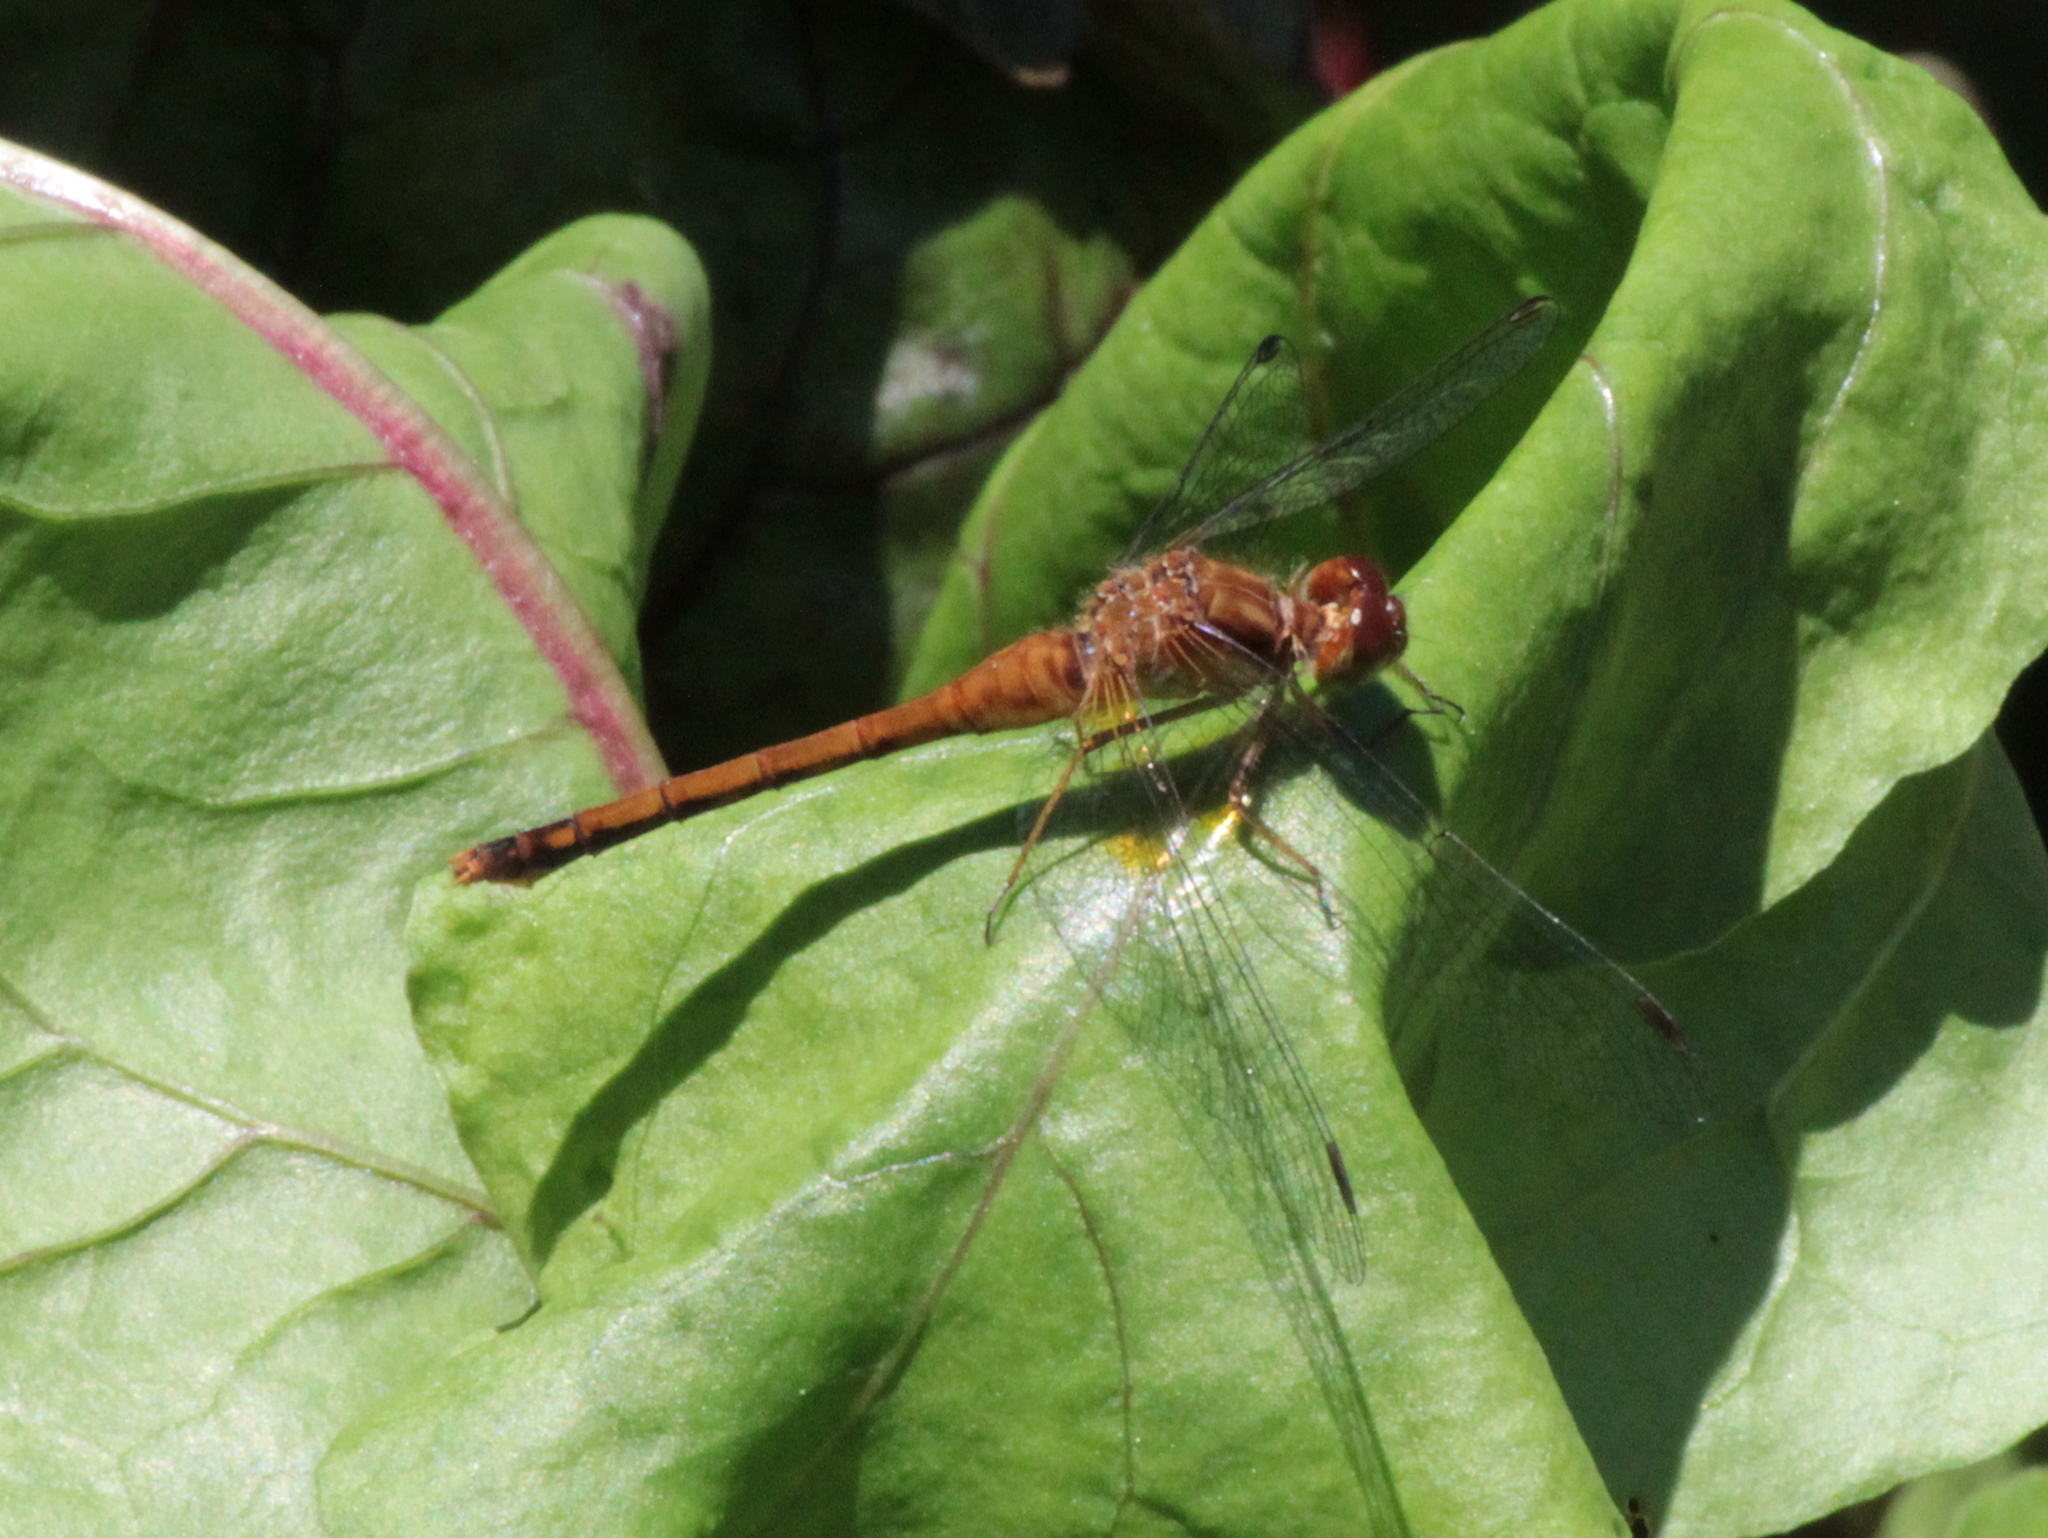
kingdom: Animalia
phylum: Arthropoda
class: Insecta
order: Odonata
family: Libellulidae
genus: Sympetrum
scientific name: Sympetrum vicinum
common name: Autumn meadowhawk
